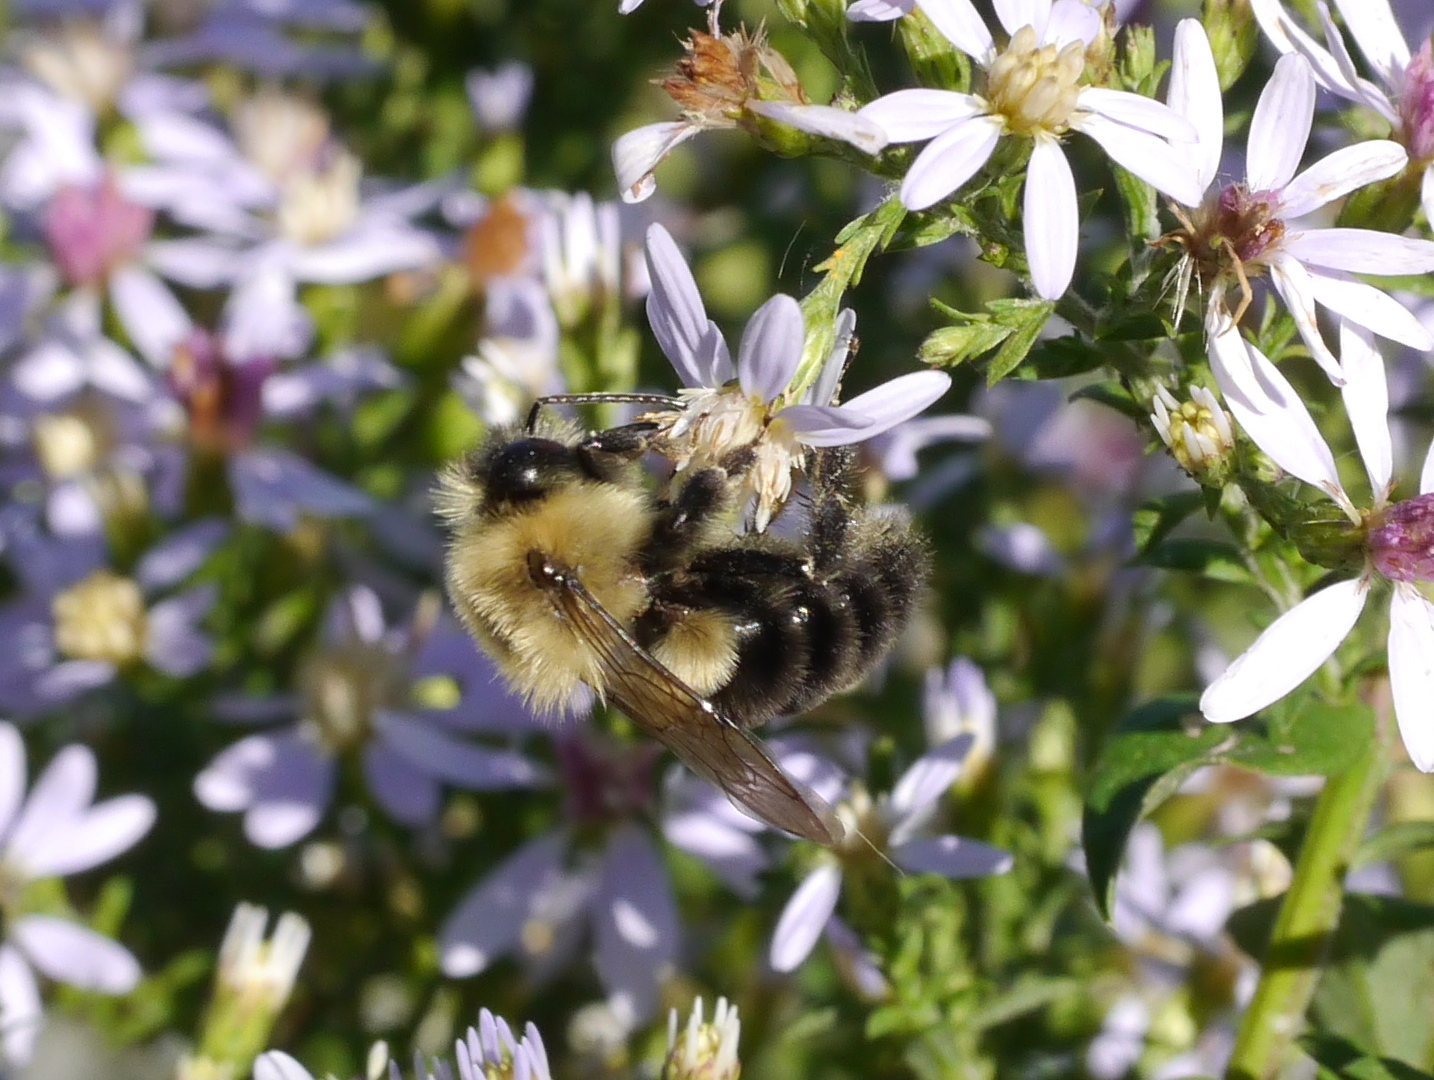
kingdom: Animalia
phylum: Arthropoda
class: Insecta
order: Hymenoptera
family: Apidae
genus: Bombus
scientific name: Bombus impatiens
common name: Common eastern bumble bee
